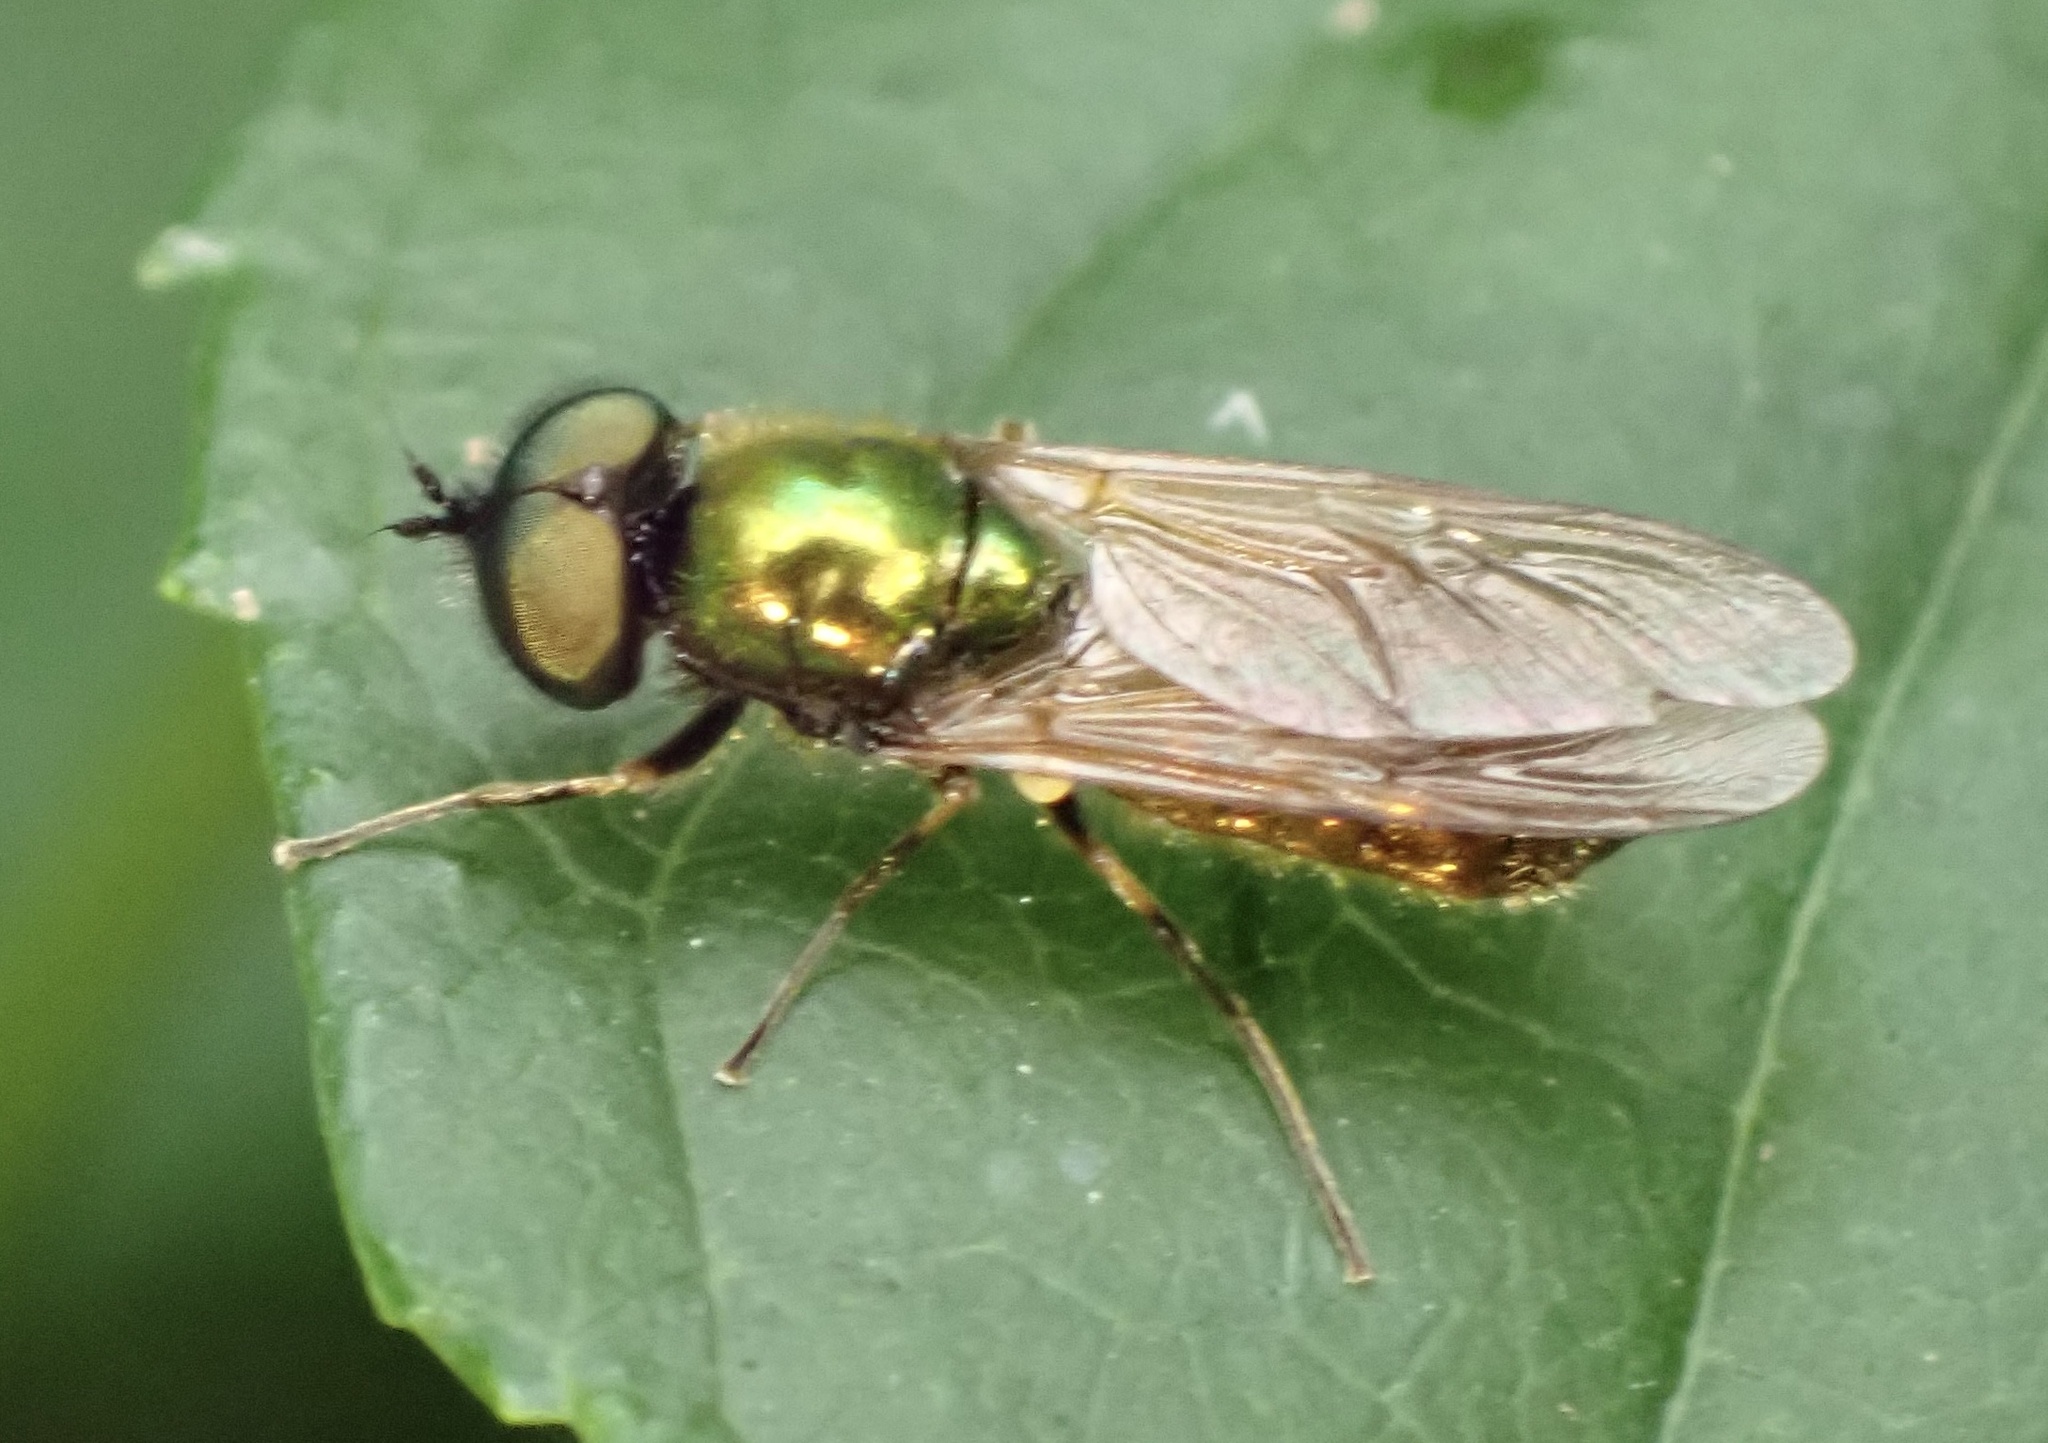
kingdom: Animalia
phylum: Arthropoda
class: Insecta
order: Diptera
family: Stratiomyidae
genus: Chloromyia
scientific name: Chloromyia formosa
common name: Soldier fly
